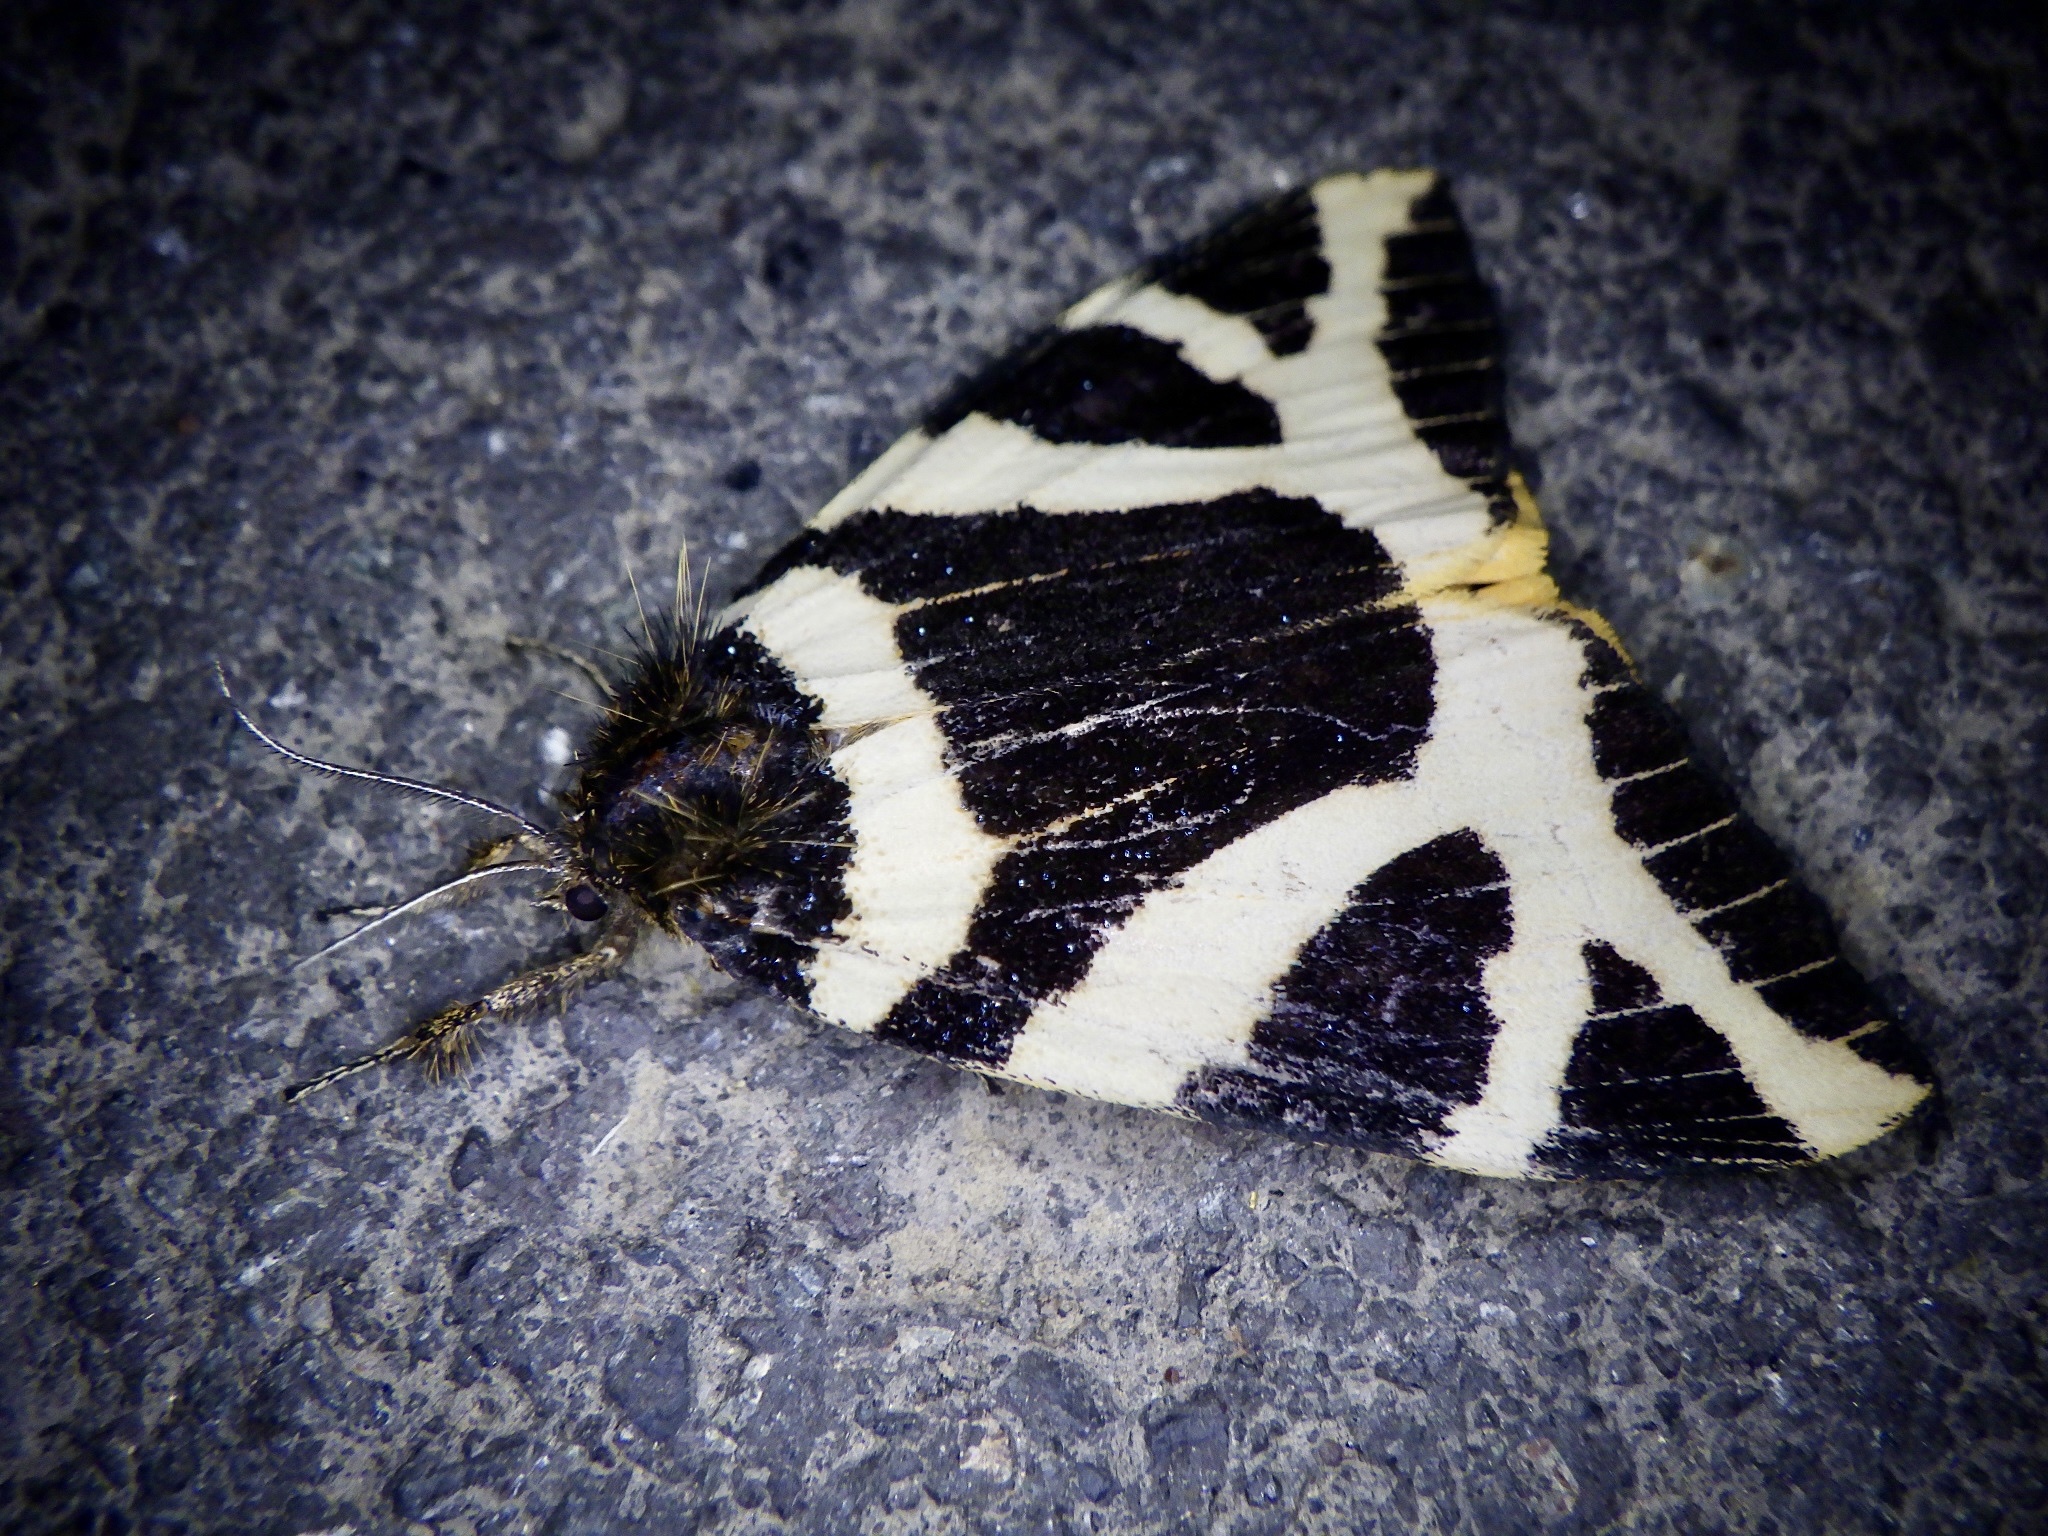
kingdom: Animalia
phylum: Arthropoda
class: Insecta
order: Lepidoptera
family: Erebidae
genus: Numenes
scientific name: Numenes disparilis
